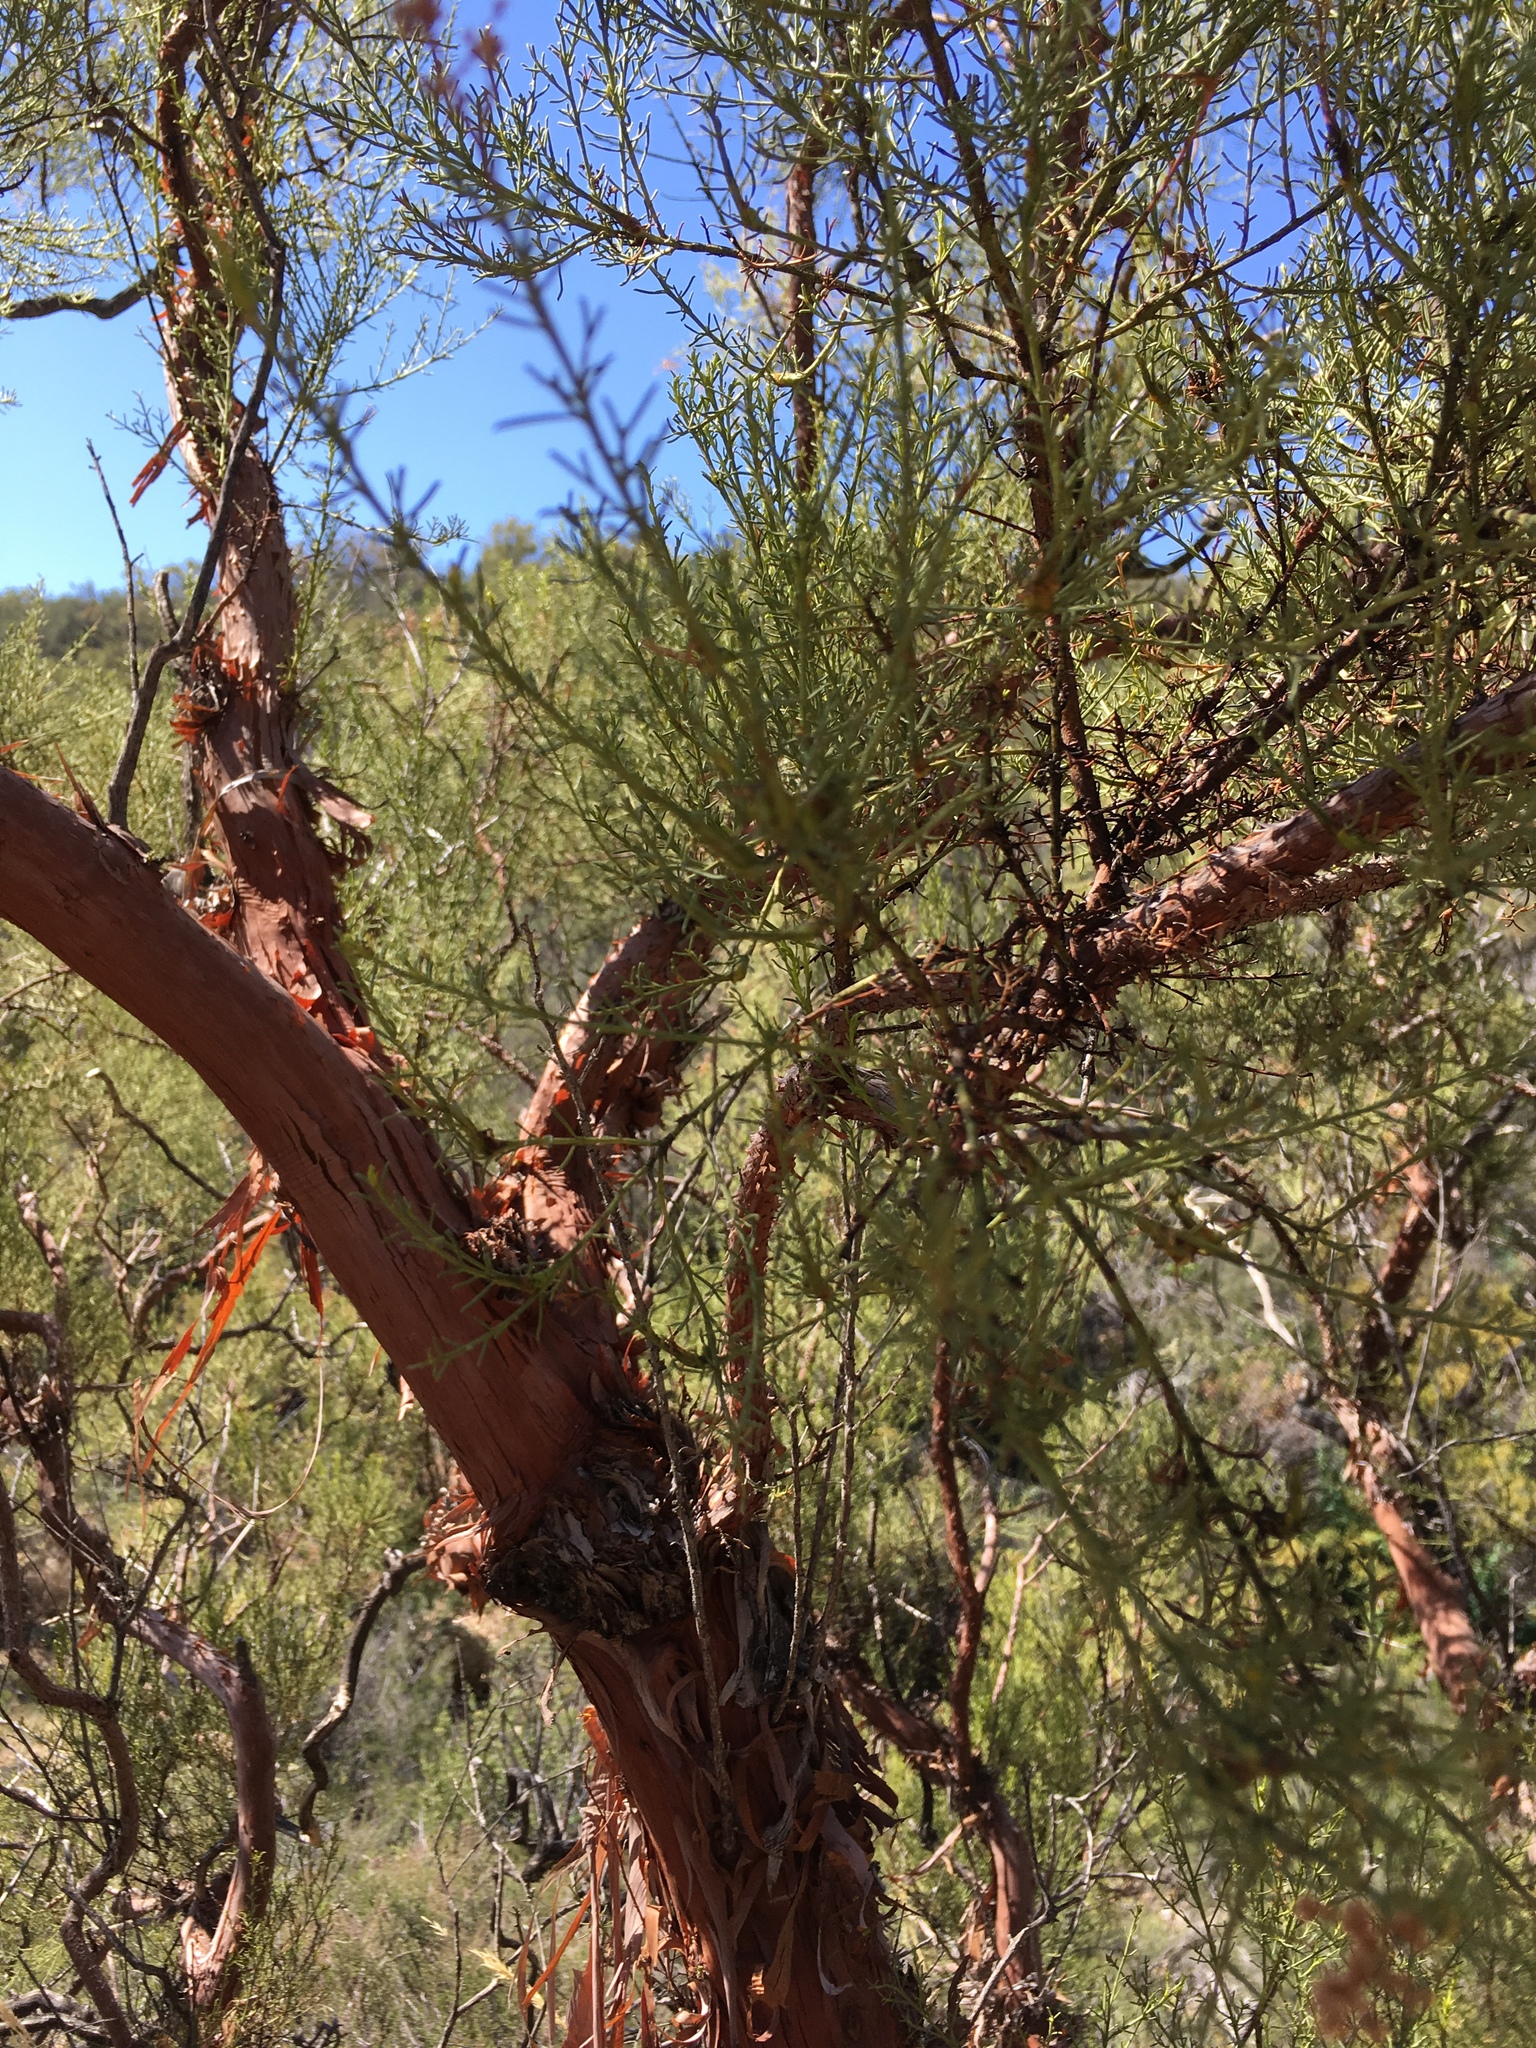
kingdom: Plantae
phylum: Tracheophyta
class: Magnoliopsida
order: Rosales
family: Rosaceae
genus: Adenostoma
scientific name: Adenostoma sparsifolium
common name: Red shank
